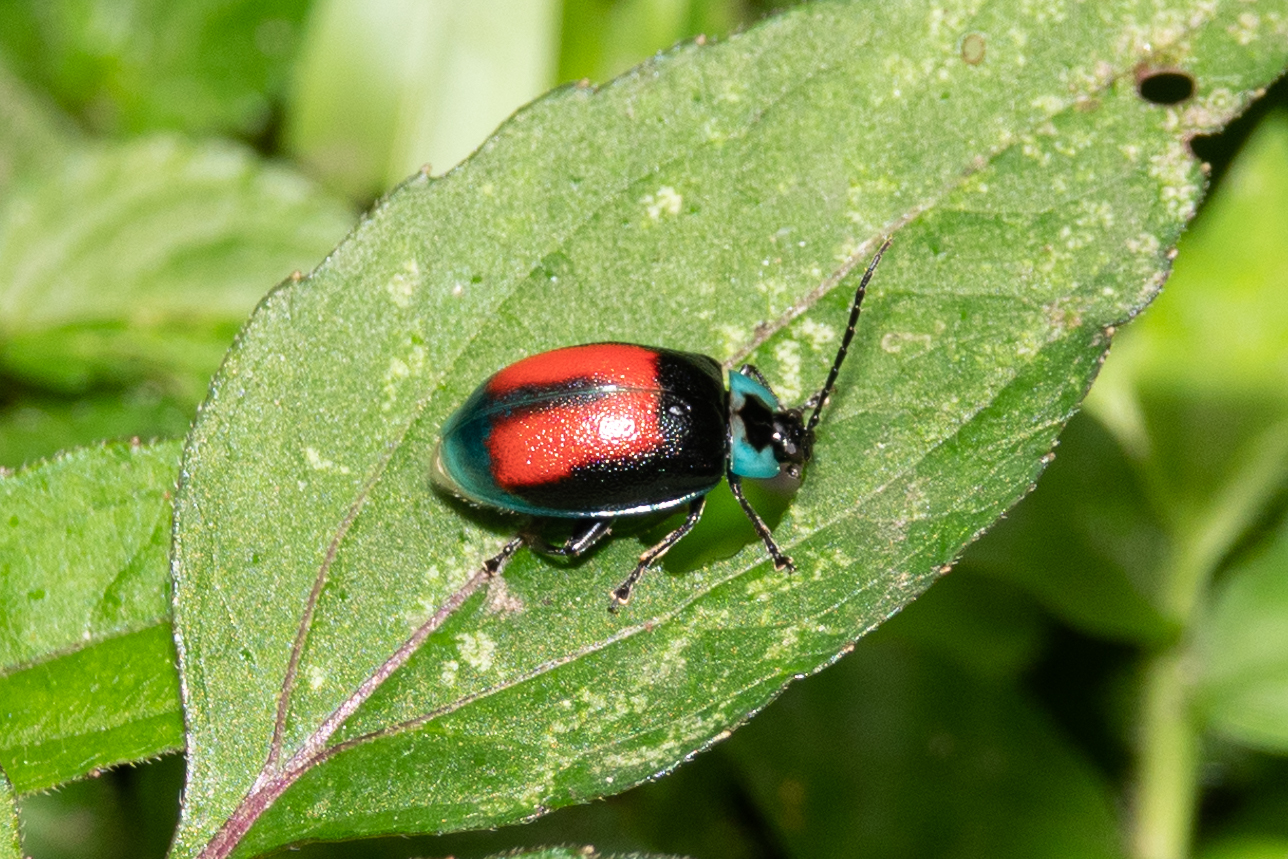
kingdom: Animalia
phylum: Arthropoda
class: Insecta
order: Coleoptera
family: Chrysomelidae
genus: Aspicela
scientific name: Aspicela
